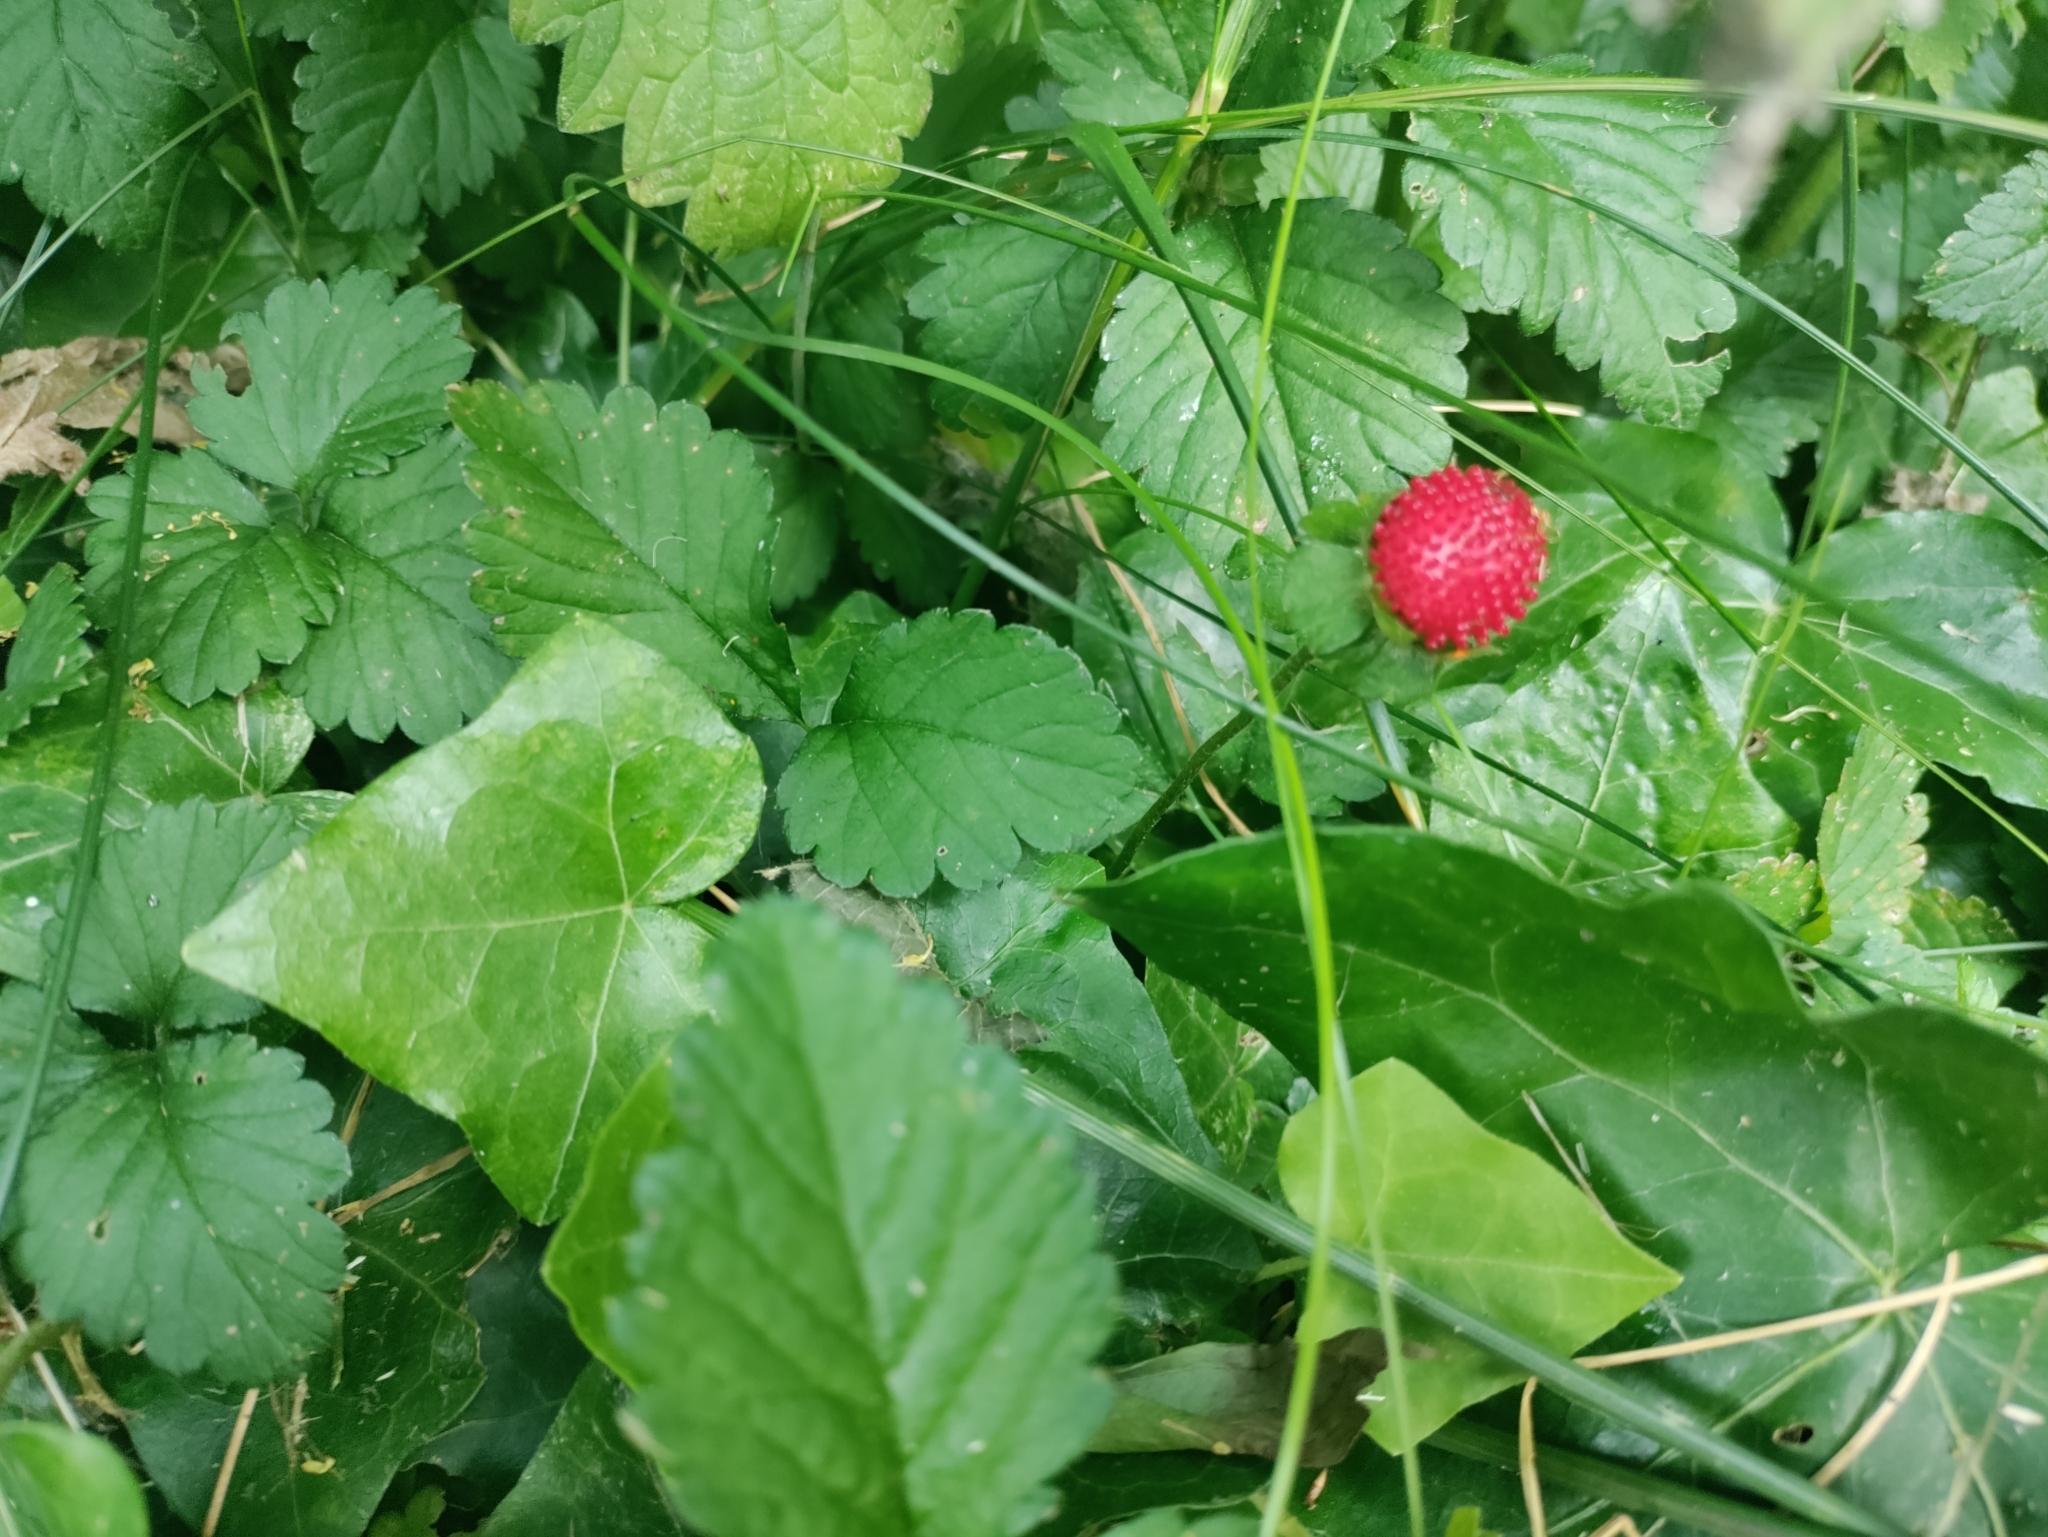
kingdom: Plantae
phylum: Tracheophyta
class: Magnoliopsida
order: Rosales
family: Rosaceae
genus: Potentilla
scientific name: Potentilla indica
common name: Yellow-flowered strawberry
